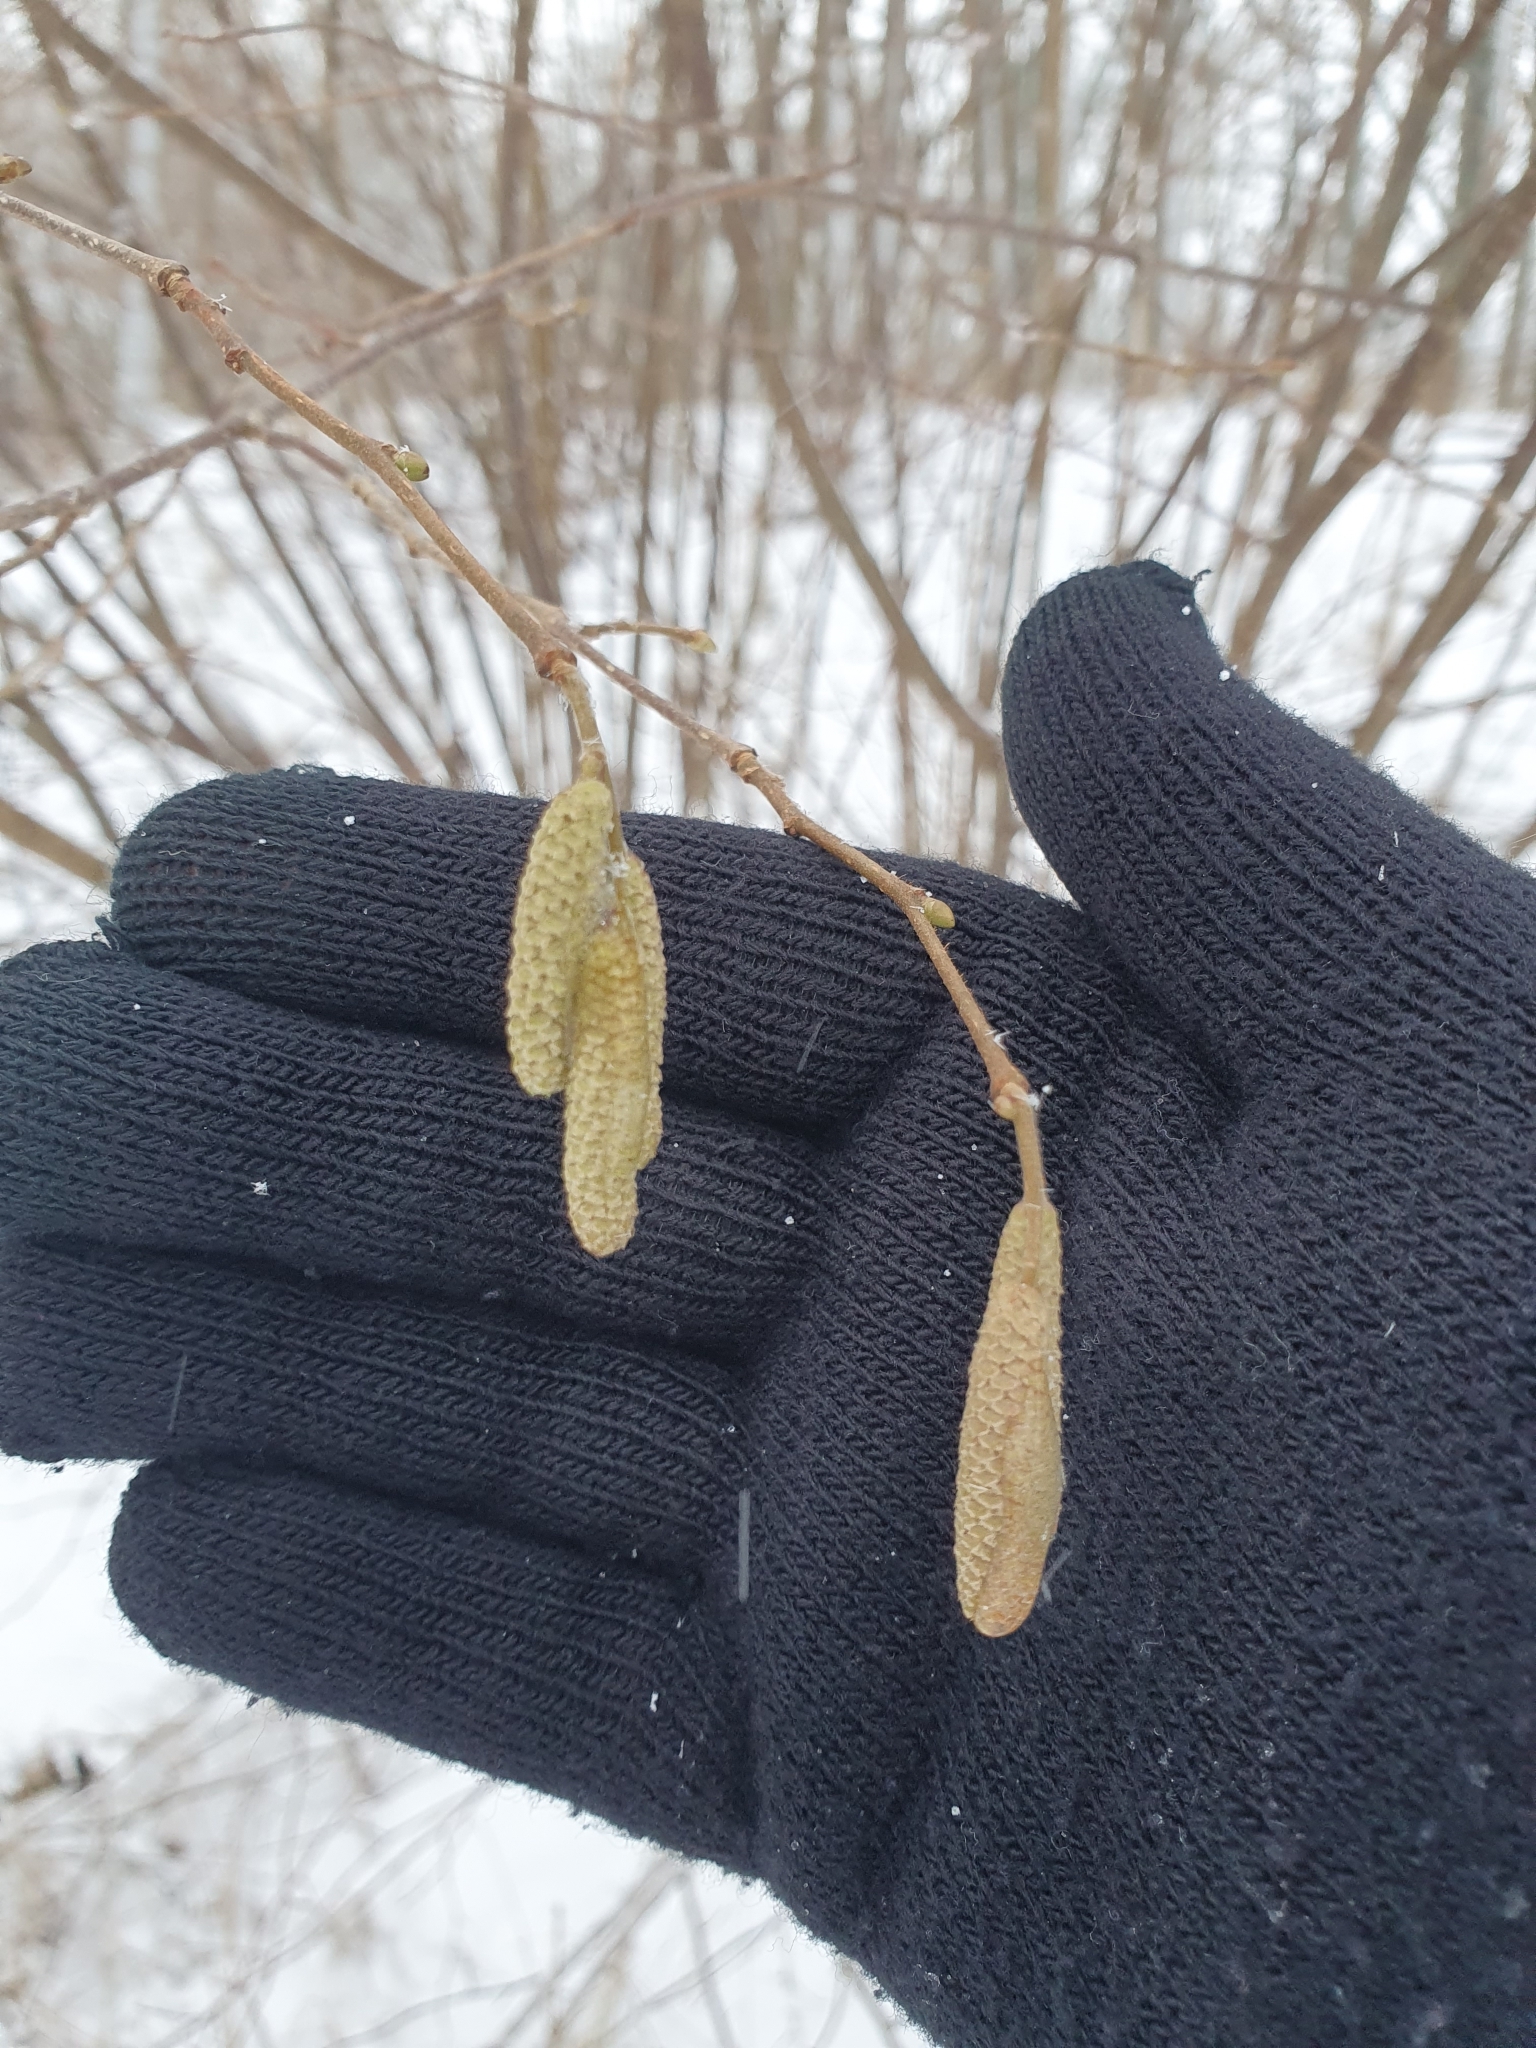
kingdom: Plantae
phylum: Tracheophyta
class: Magnoliopsida
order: Fagales
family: Betulaceae
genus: Corylus
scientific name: Corylus avellana
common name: European hazel
